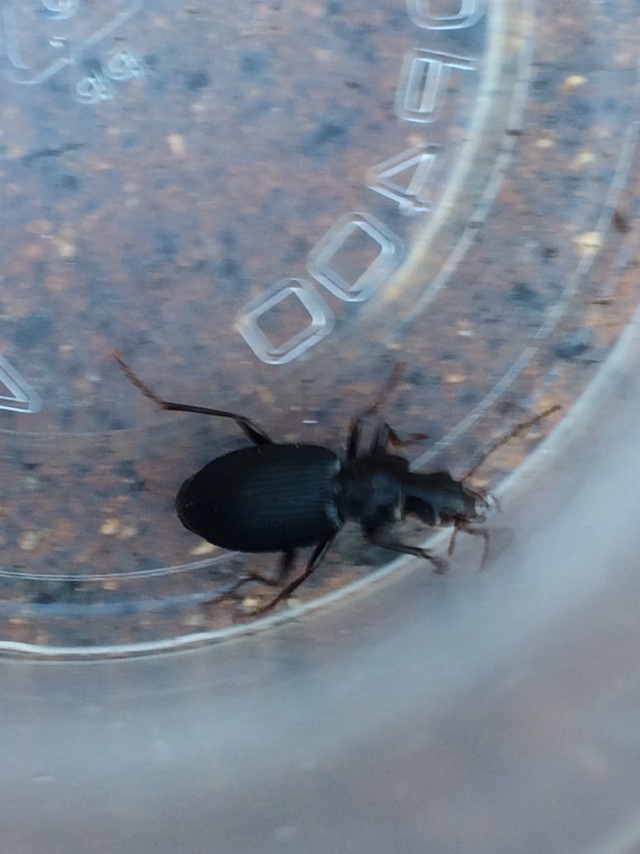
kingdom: Animalia
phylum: Arthropoda
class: Insecta
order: Coleoptera
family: Carabidae
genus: Laemostenus
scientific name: Laemostenus complanatus
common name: Cosmopolitan ground beetle
